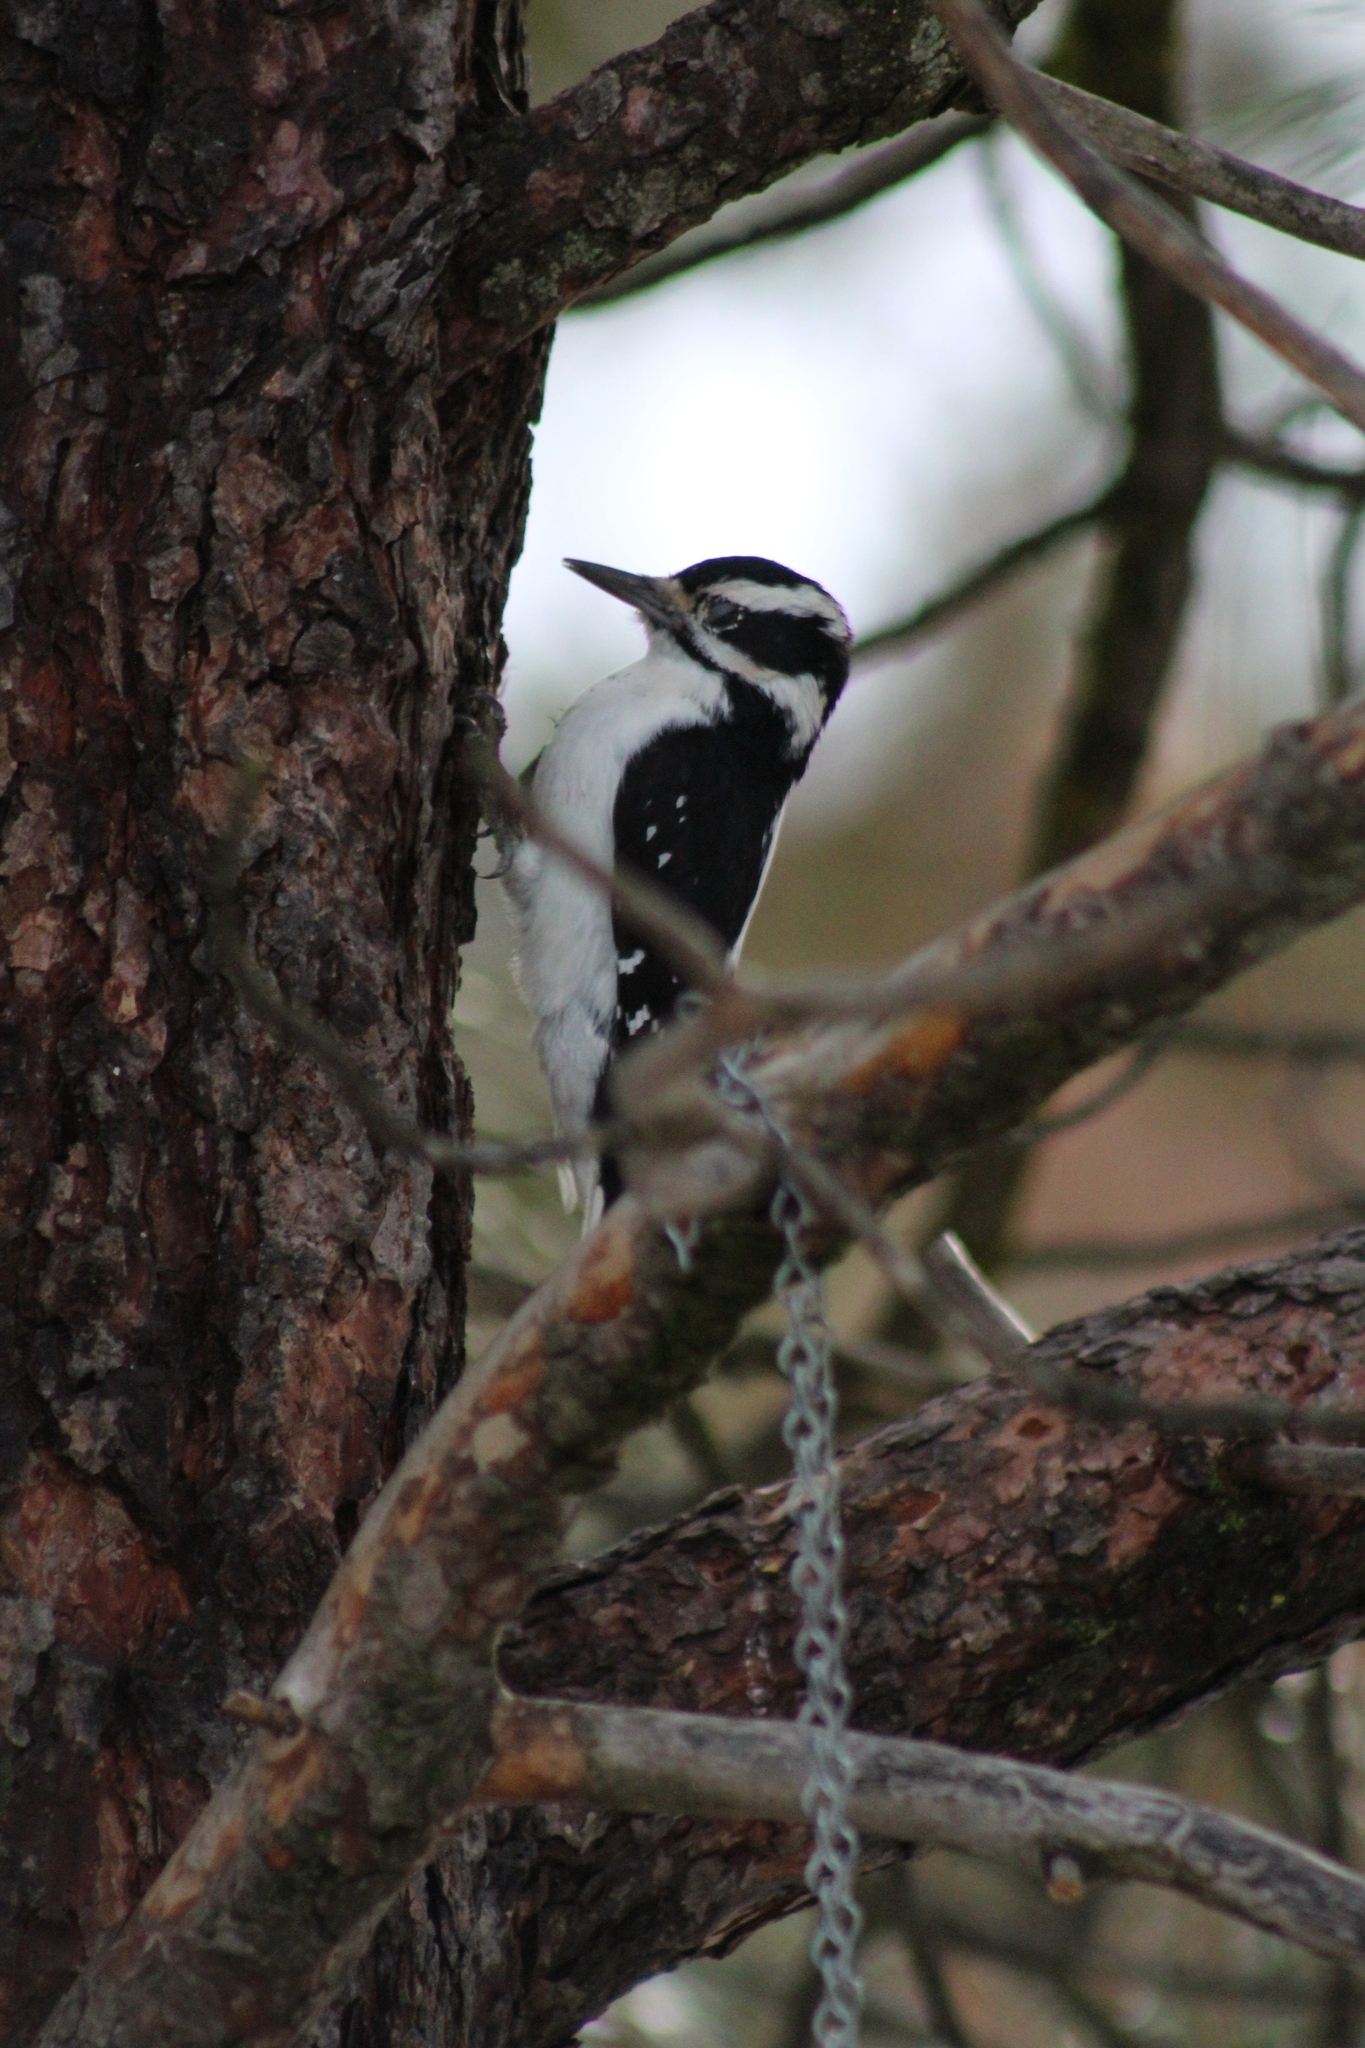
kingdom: Animalia
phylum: Chordata
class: Aves
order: Piciformes
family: Picidae
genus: Leuconotopicus
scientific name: Leuconotopicus villosus
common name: Hairy woodpecker
